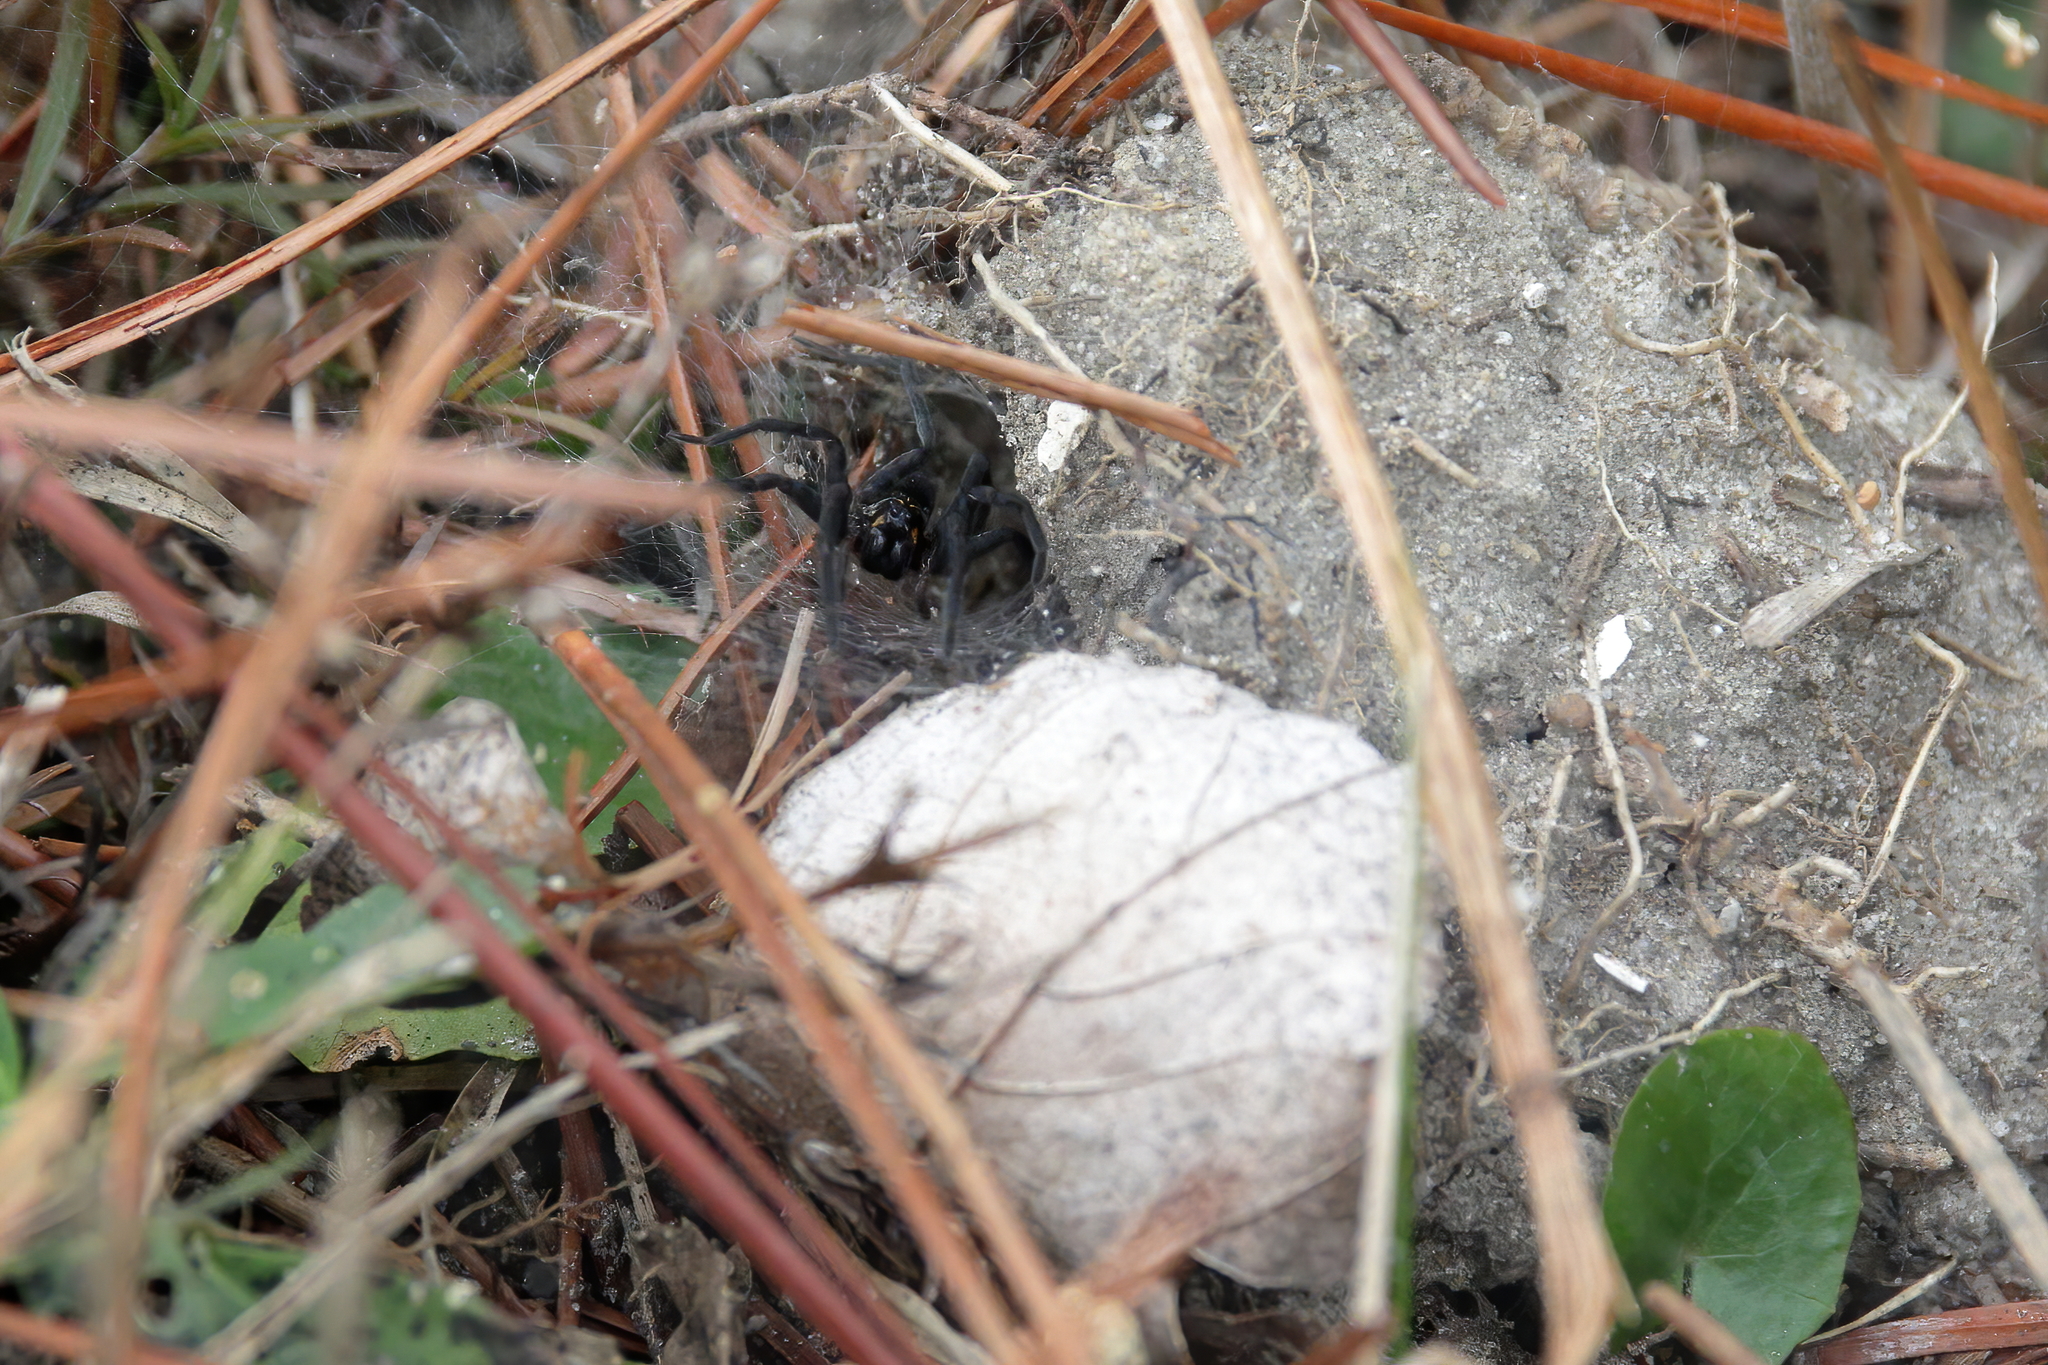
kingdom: Animalia
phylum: Arthropoda
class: Arachnida
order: Araneae
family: Lycosidae
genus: Sosippus
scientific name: Sosippus mimus
